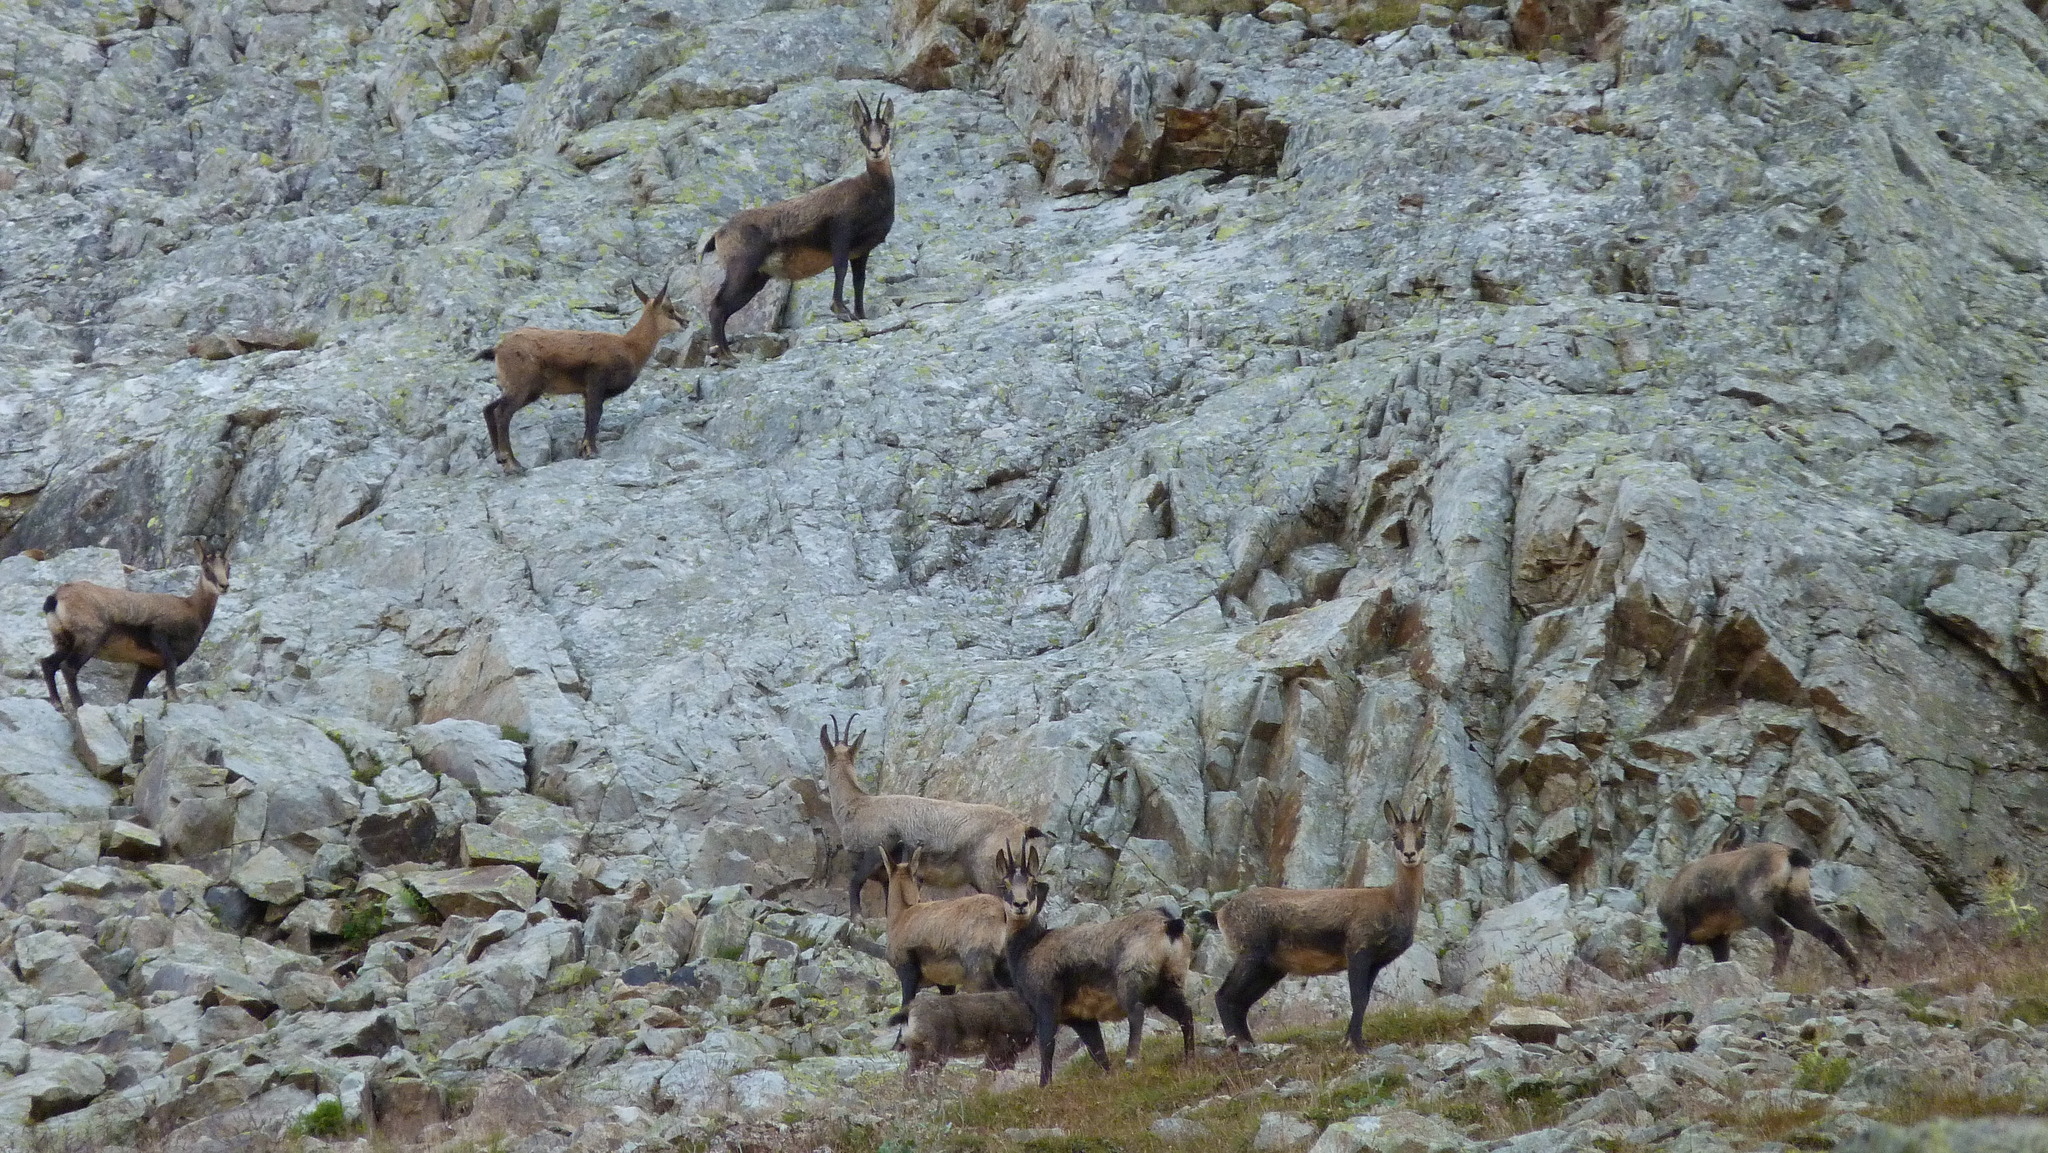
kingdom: Animalia
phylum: Chordata
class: Mammalia
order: Artiodactyla
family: Bovidae
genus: Rupicapra
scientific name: Rupicapra rupicapra
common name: Chamois
